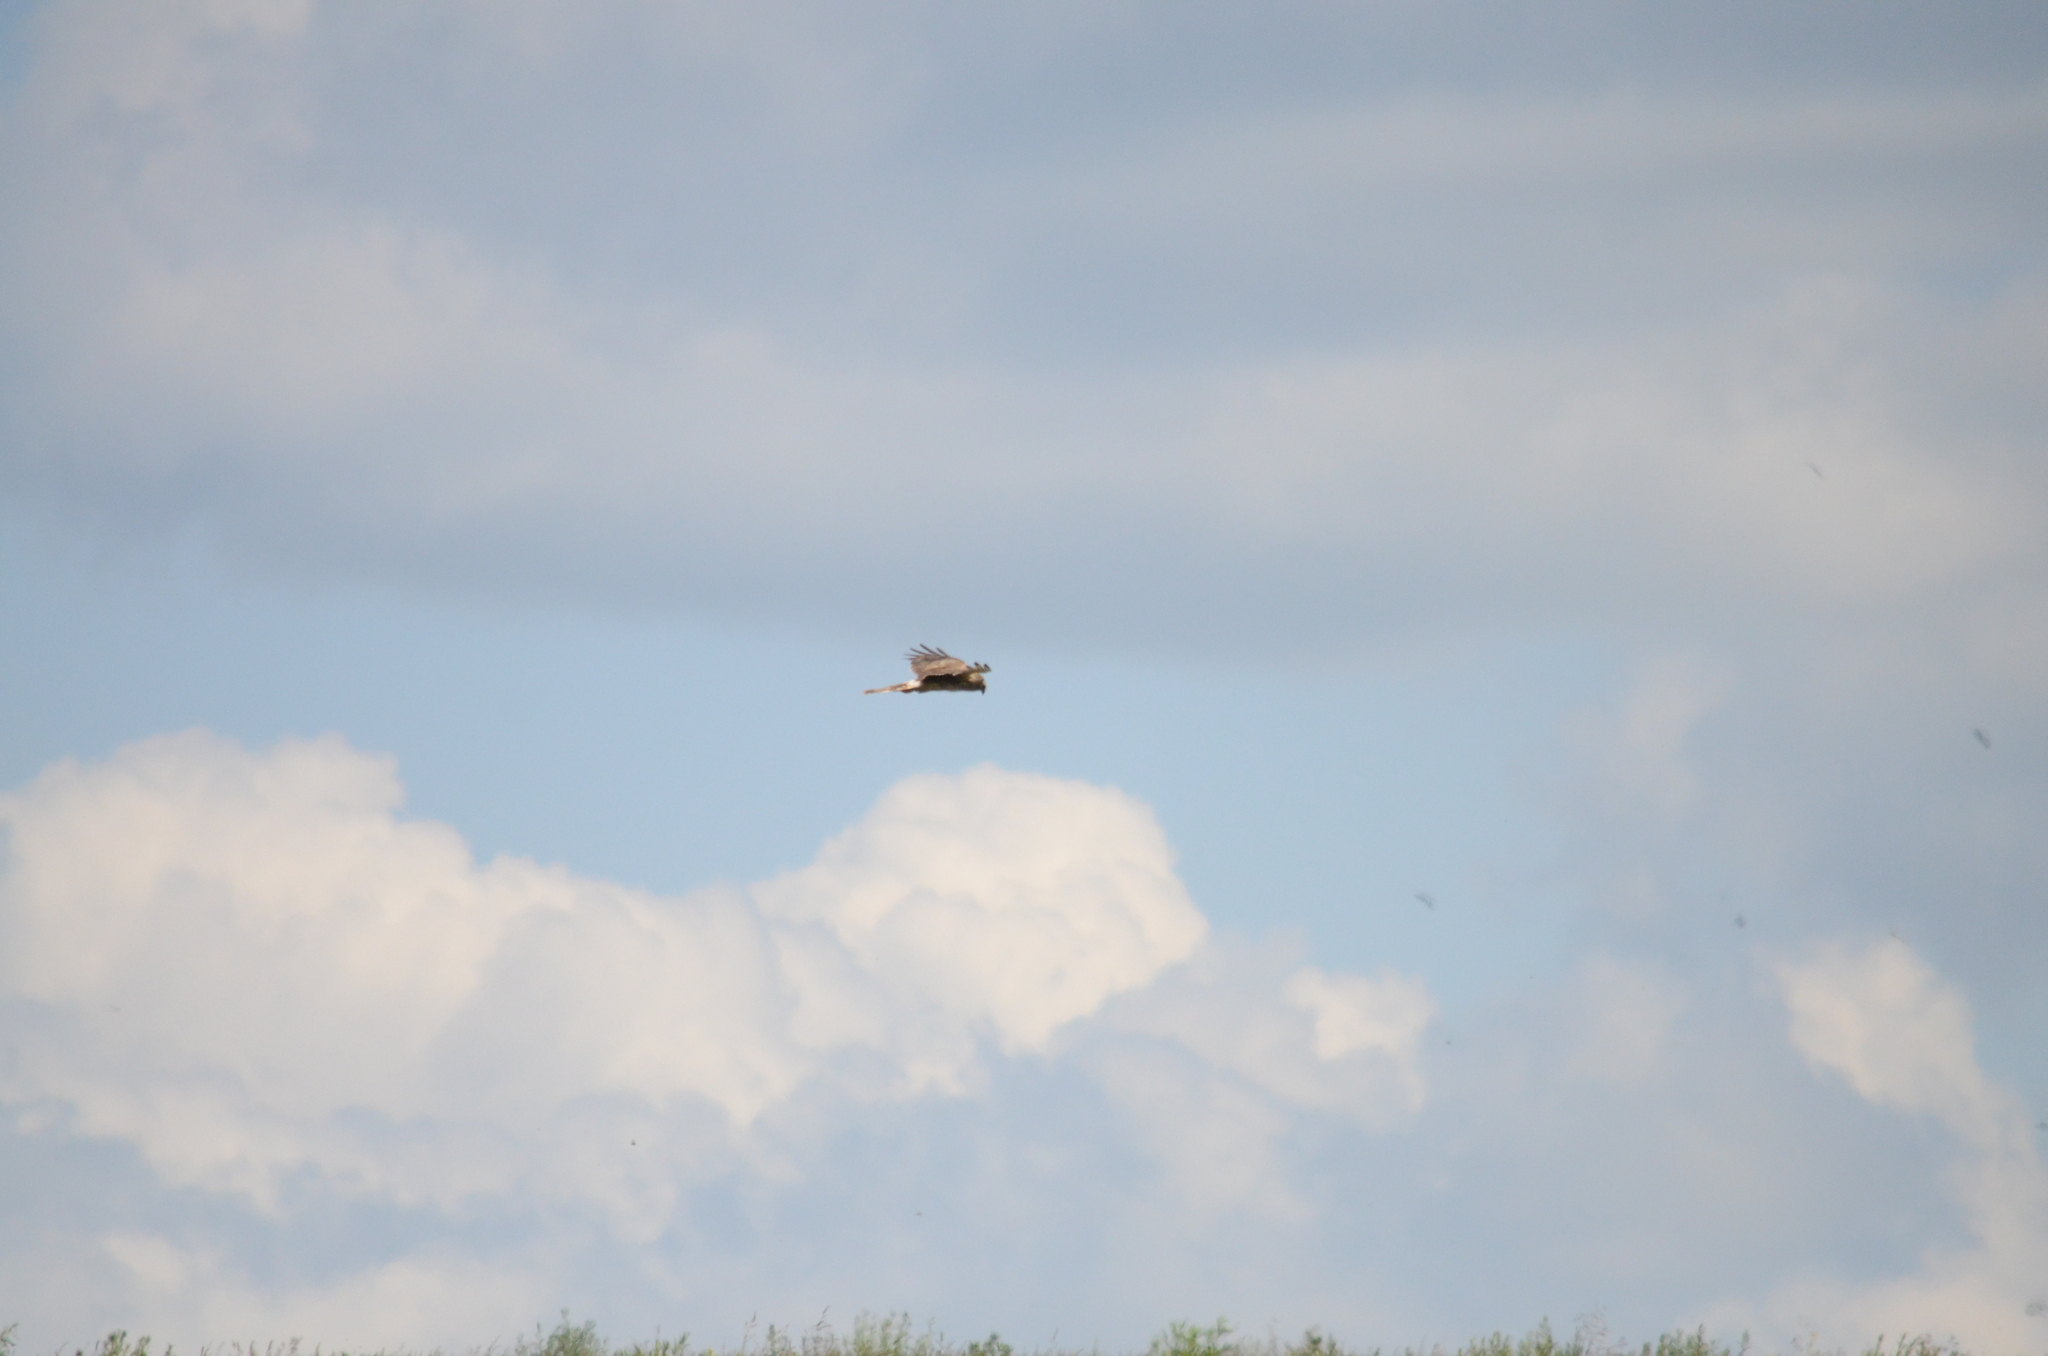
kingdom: Animalia
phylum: Chordata
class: Aves
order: Accipitriformes
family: Accipitridae
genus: Circus
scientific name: Circus cyaneus
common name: Hen harrier
